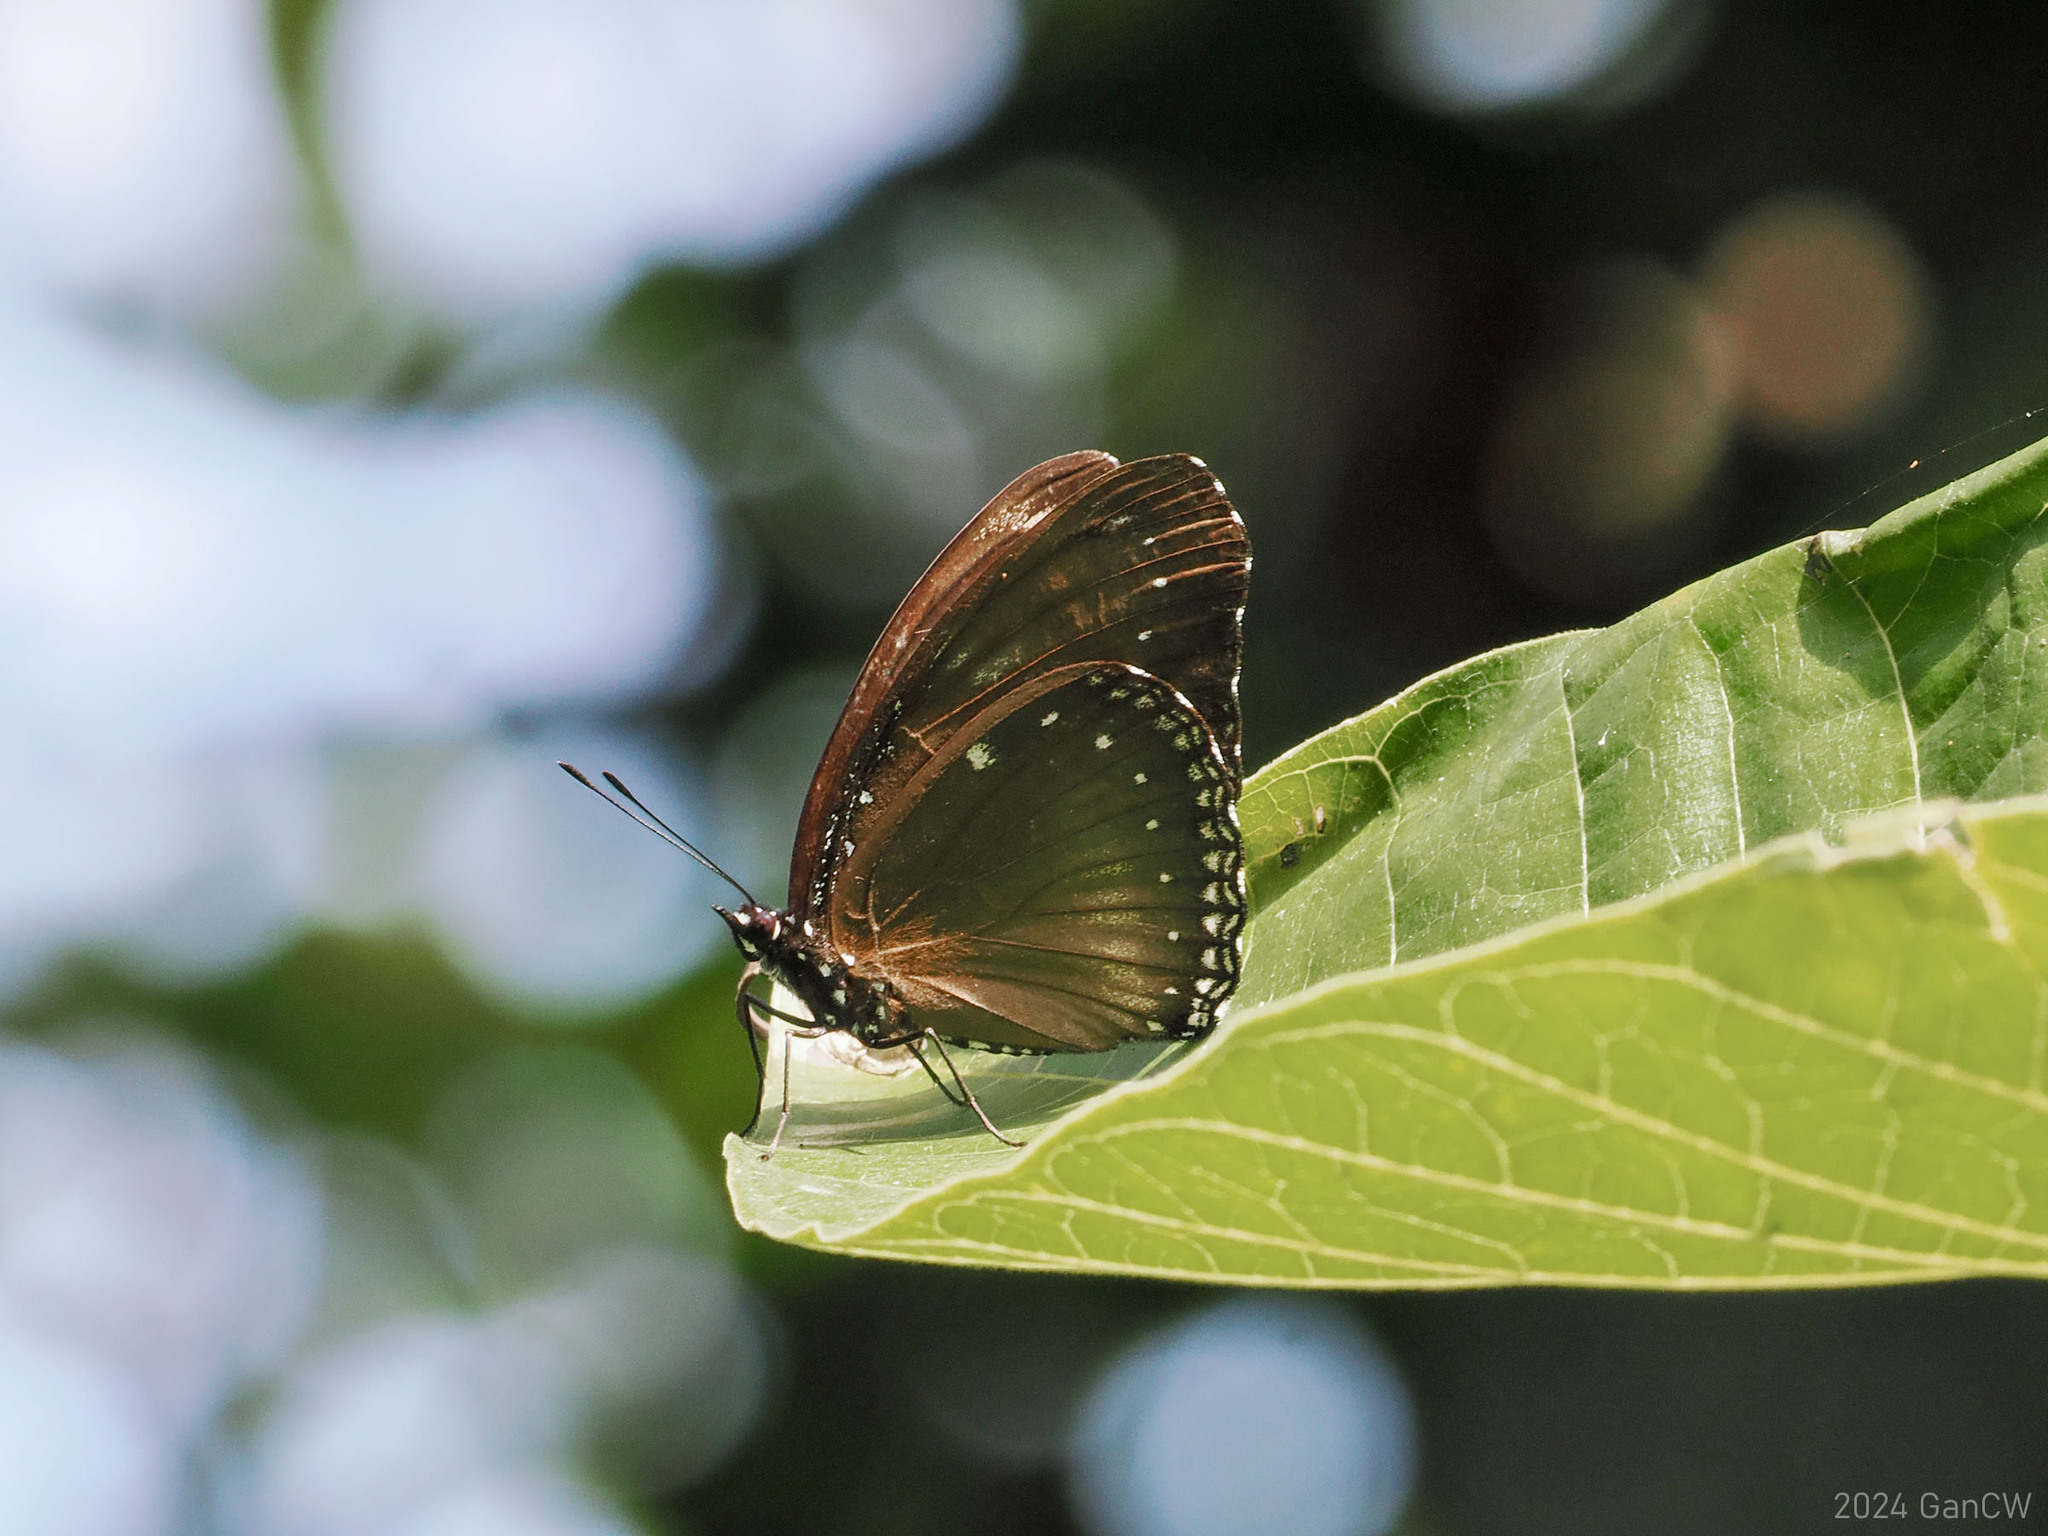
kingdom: Animalia
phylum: Arthropoda
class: Insecta
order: Lepidoptera
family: Nymphalidae
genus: Hypolimnas
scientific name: Hypolimnas anomala
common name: Malayan eggfly
